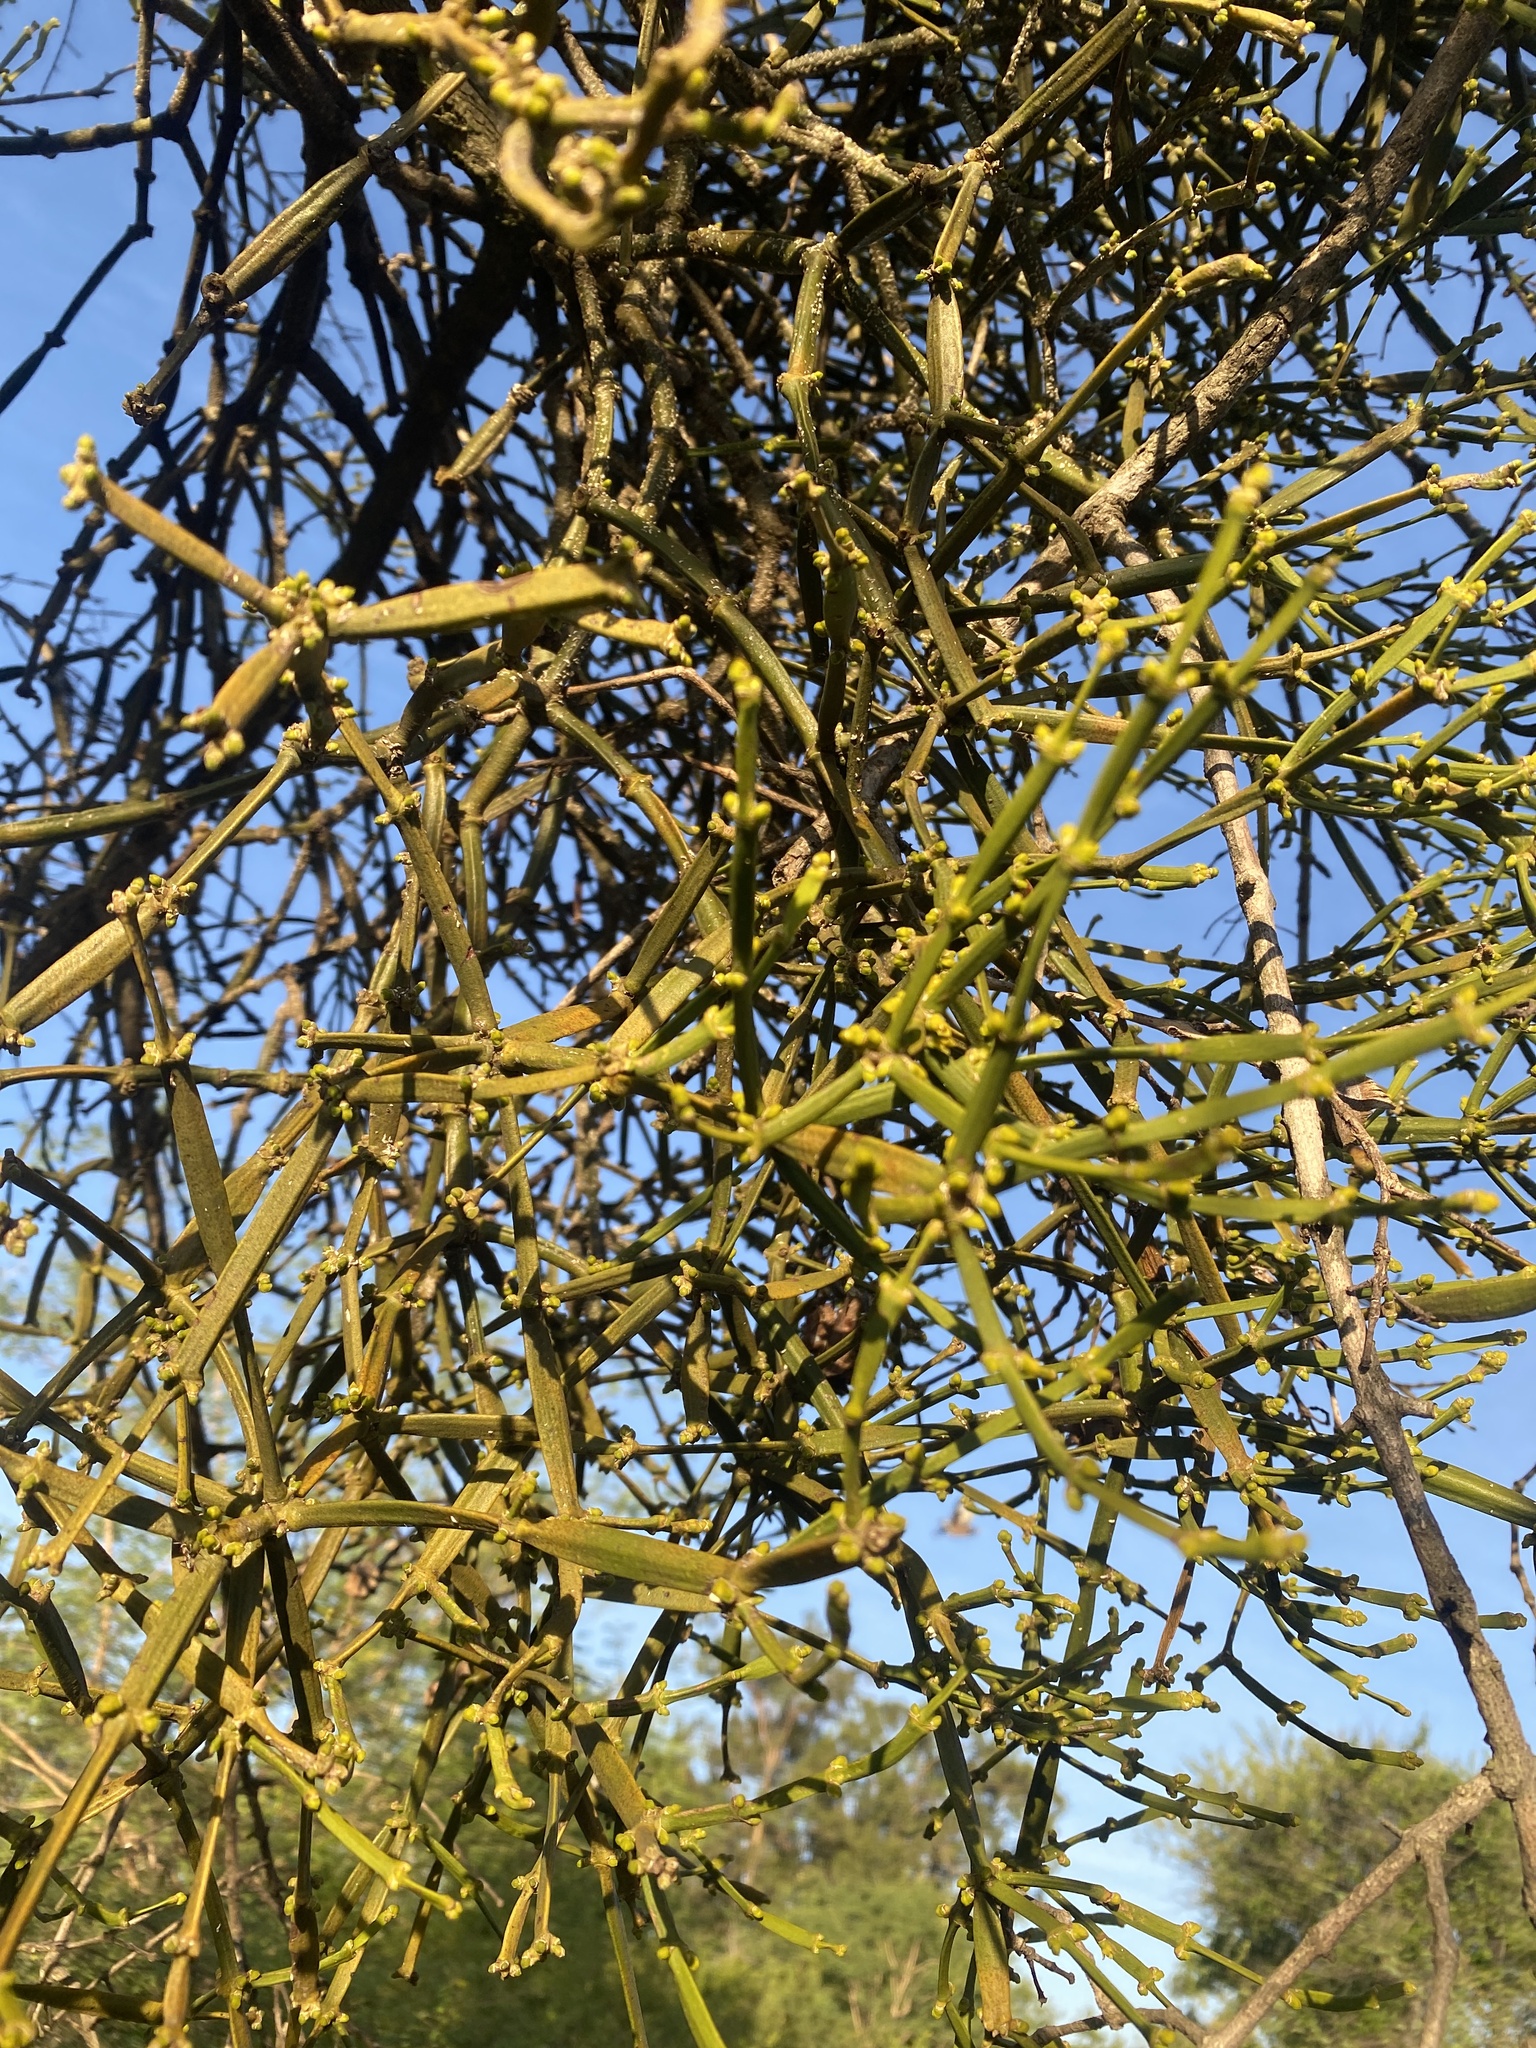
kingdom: Plantae
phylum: Tracheophyta
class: Magnoliopsida
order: Santalales
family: Viscaceae
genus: Viscum
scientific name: Viscum combreticola
